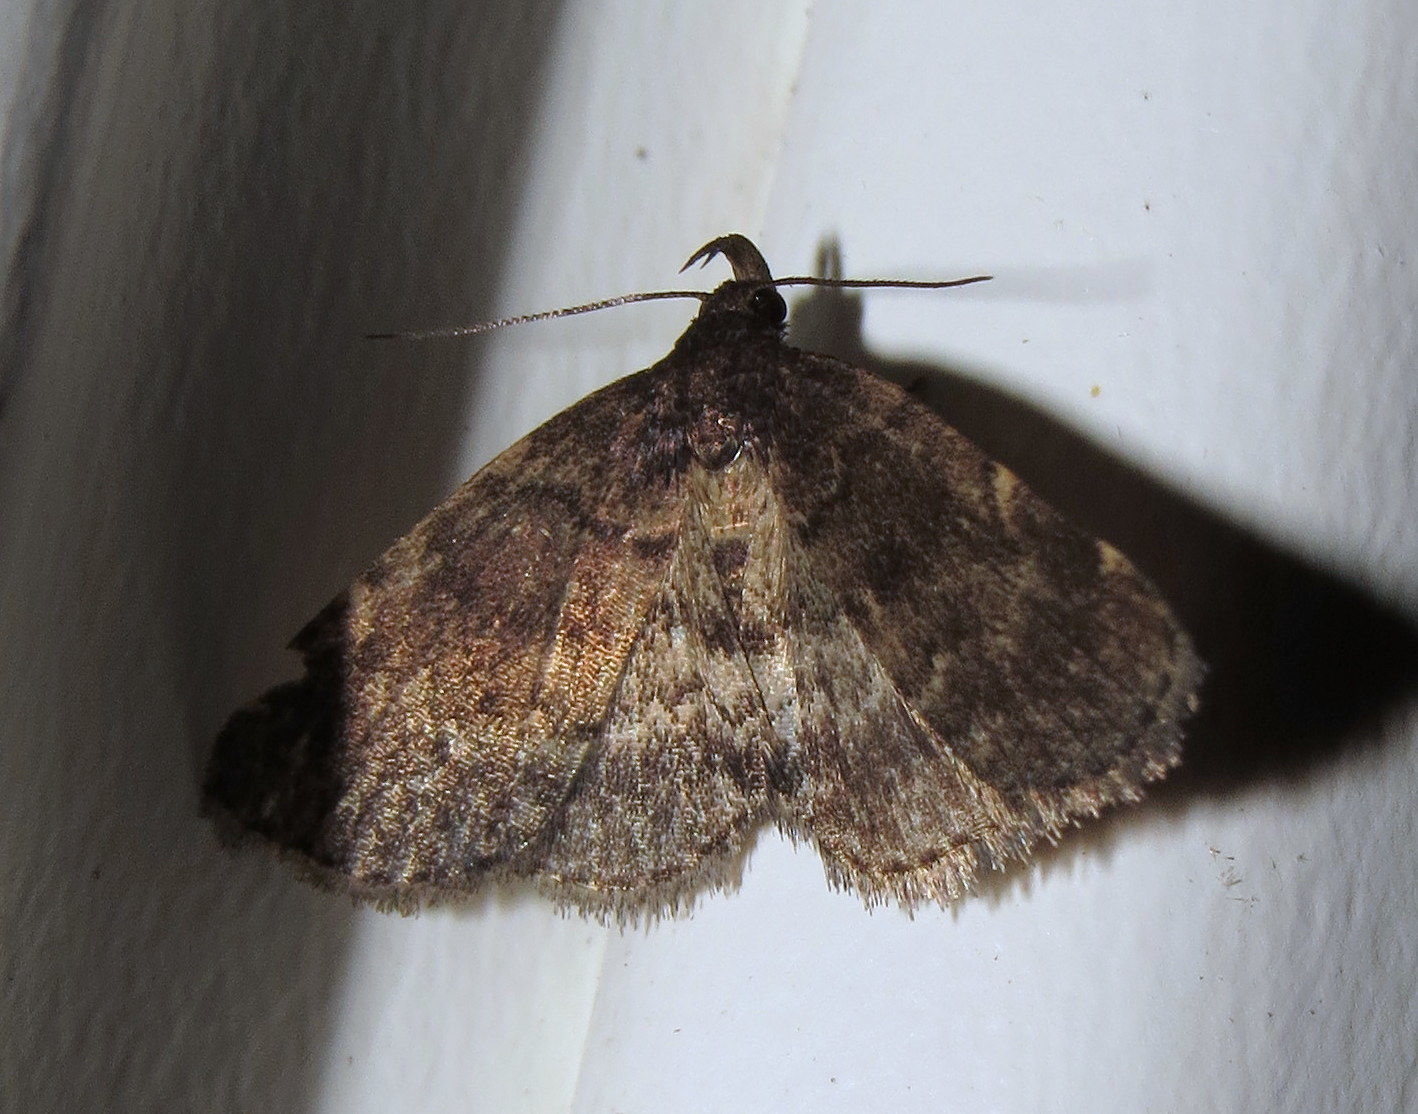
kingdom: Animalia
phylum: Arthropoda
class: Insecta
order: Lepidoptera
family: Erebidae
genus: Idia
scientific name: Idia forbesii
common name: Forbes' idia moth
